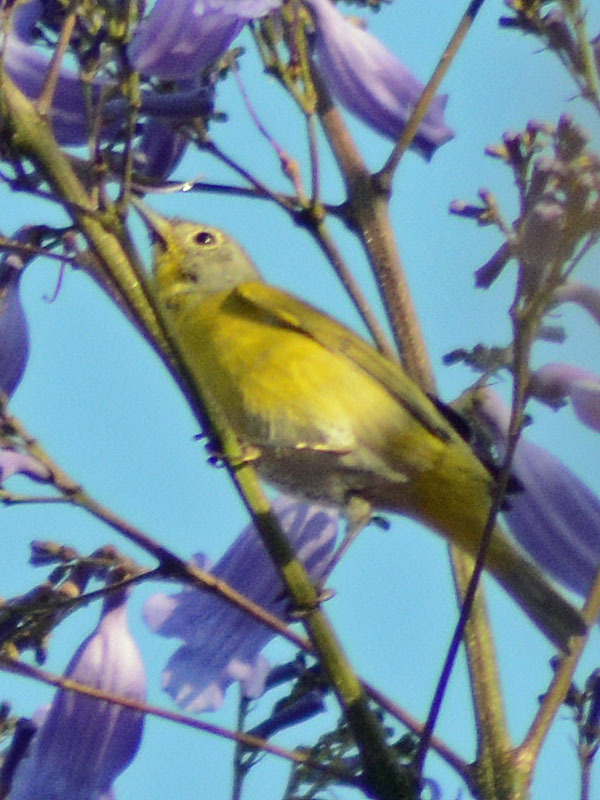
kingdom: Animalia
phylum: Chordata
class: Aves
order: Passeriformes
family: Parulidae
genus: Leiothlypis
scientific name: Leiothlypis ruficapilla
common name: Nashville warbler
